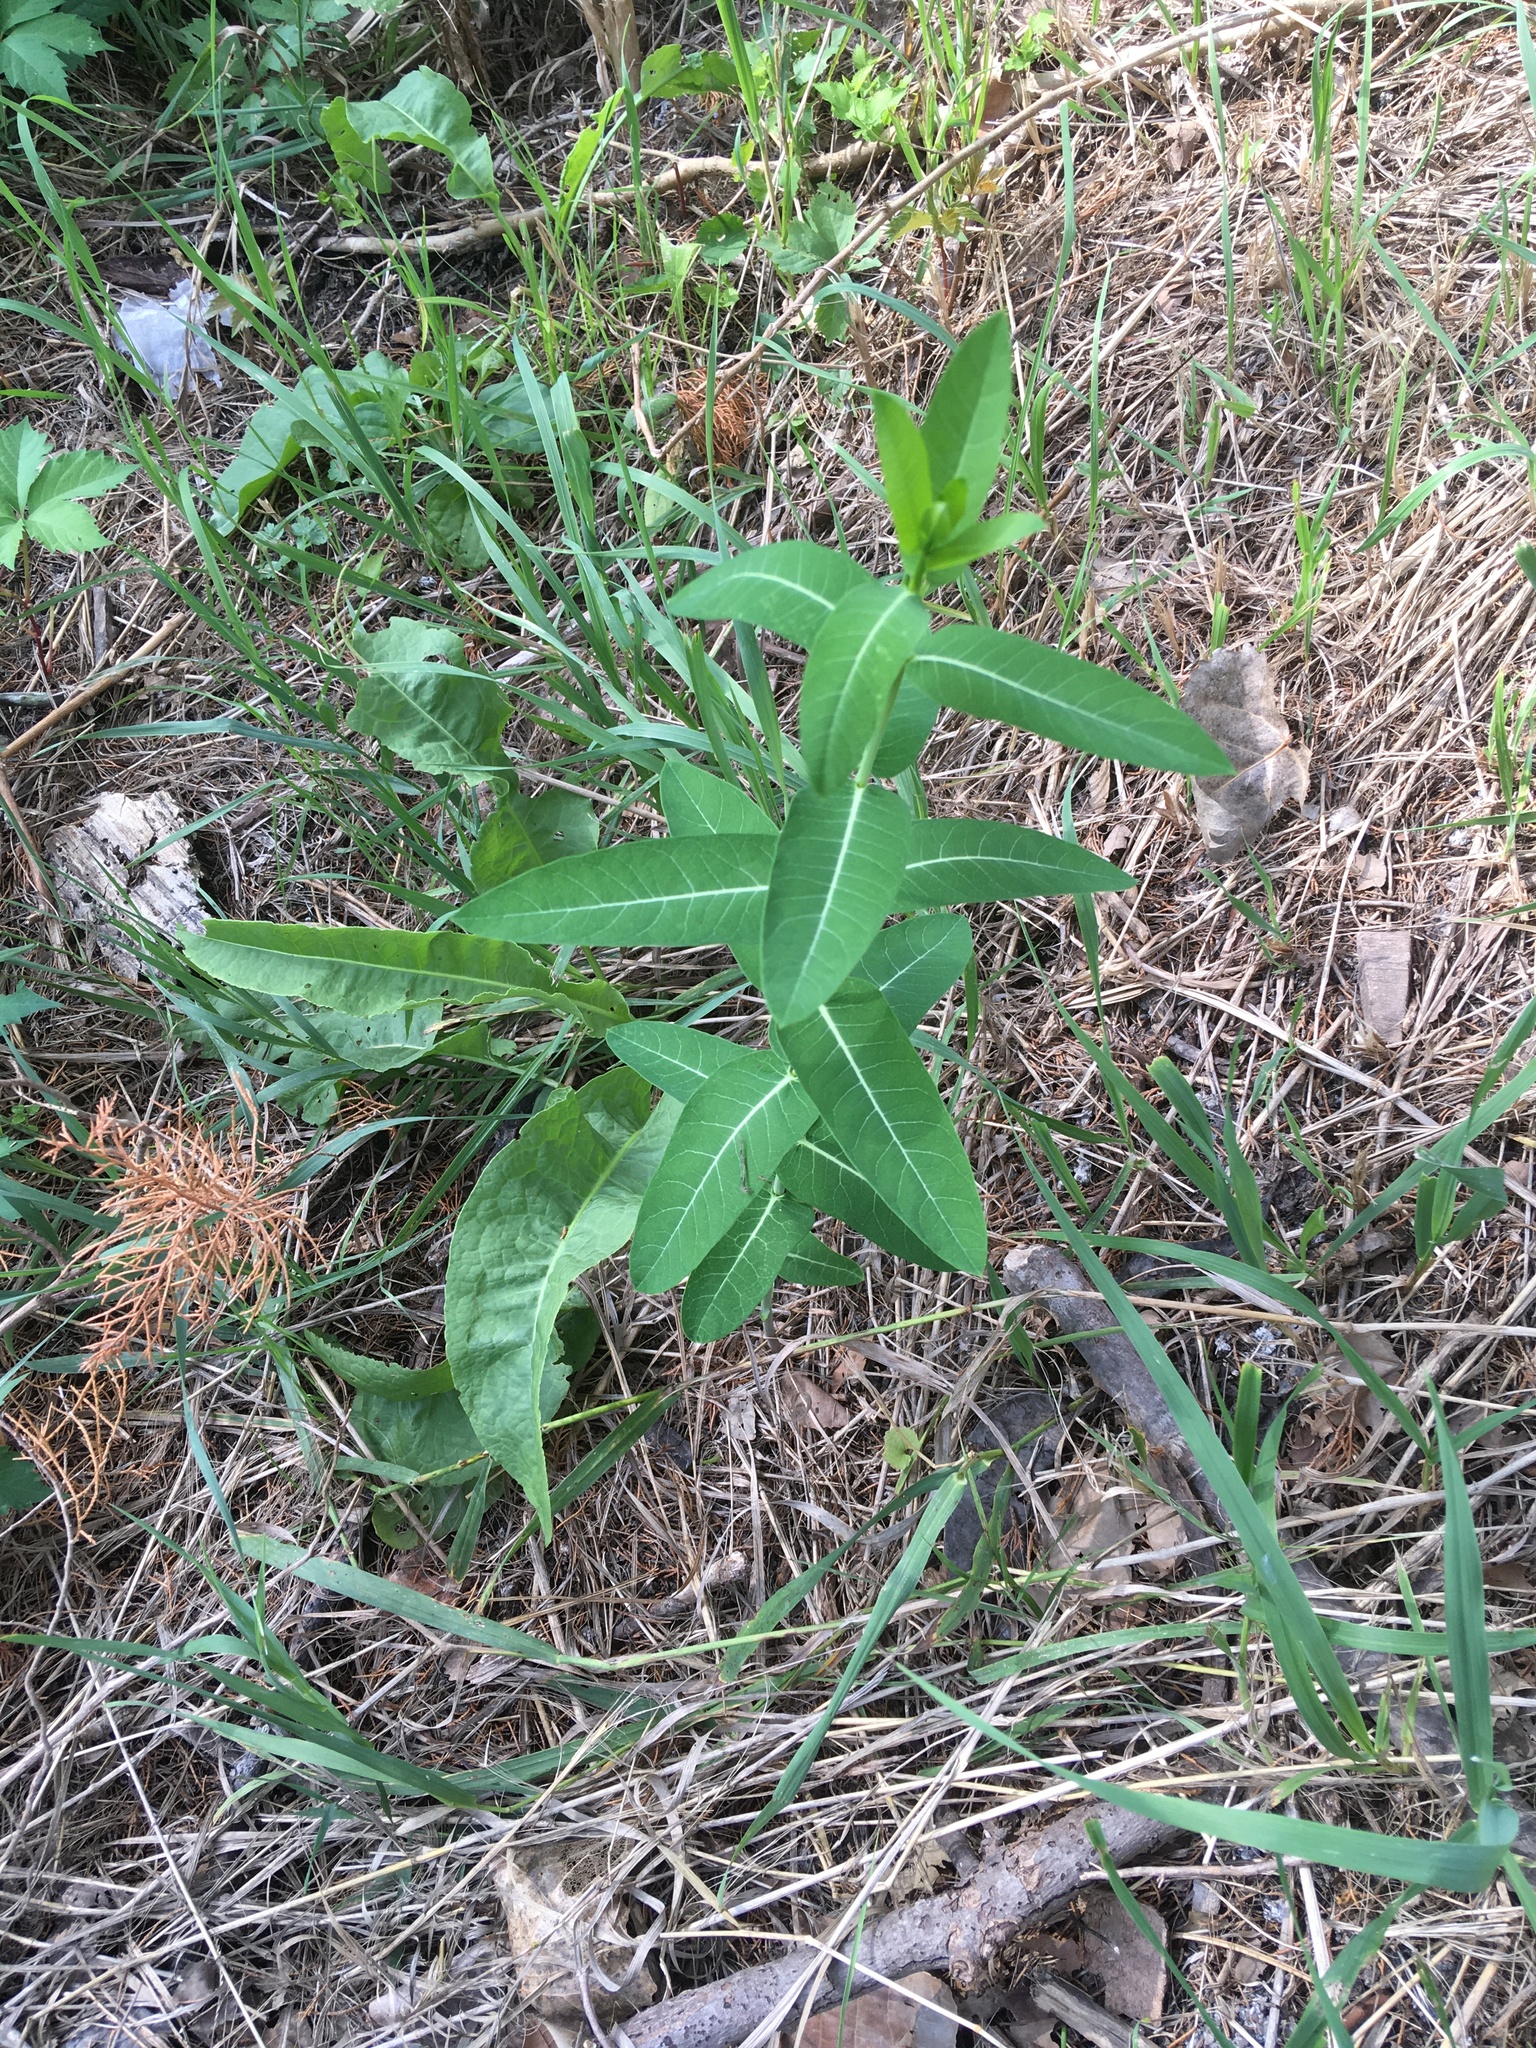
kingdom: Plantae
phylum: Tracheophyta
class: Magnoliopsida
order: Gentianales
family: Apocynaceae
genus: Apocynum
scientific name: Apocynum cannabinum
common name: Hemp dogbane
